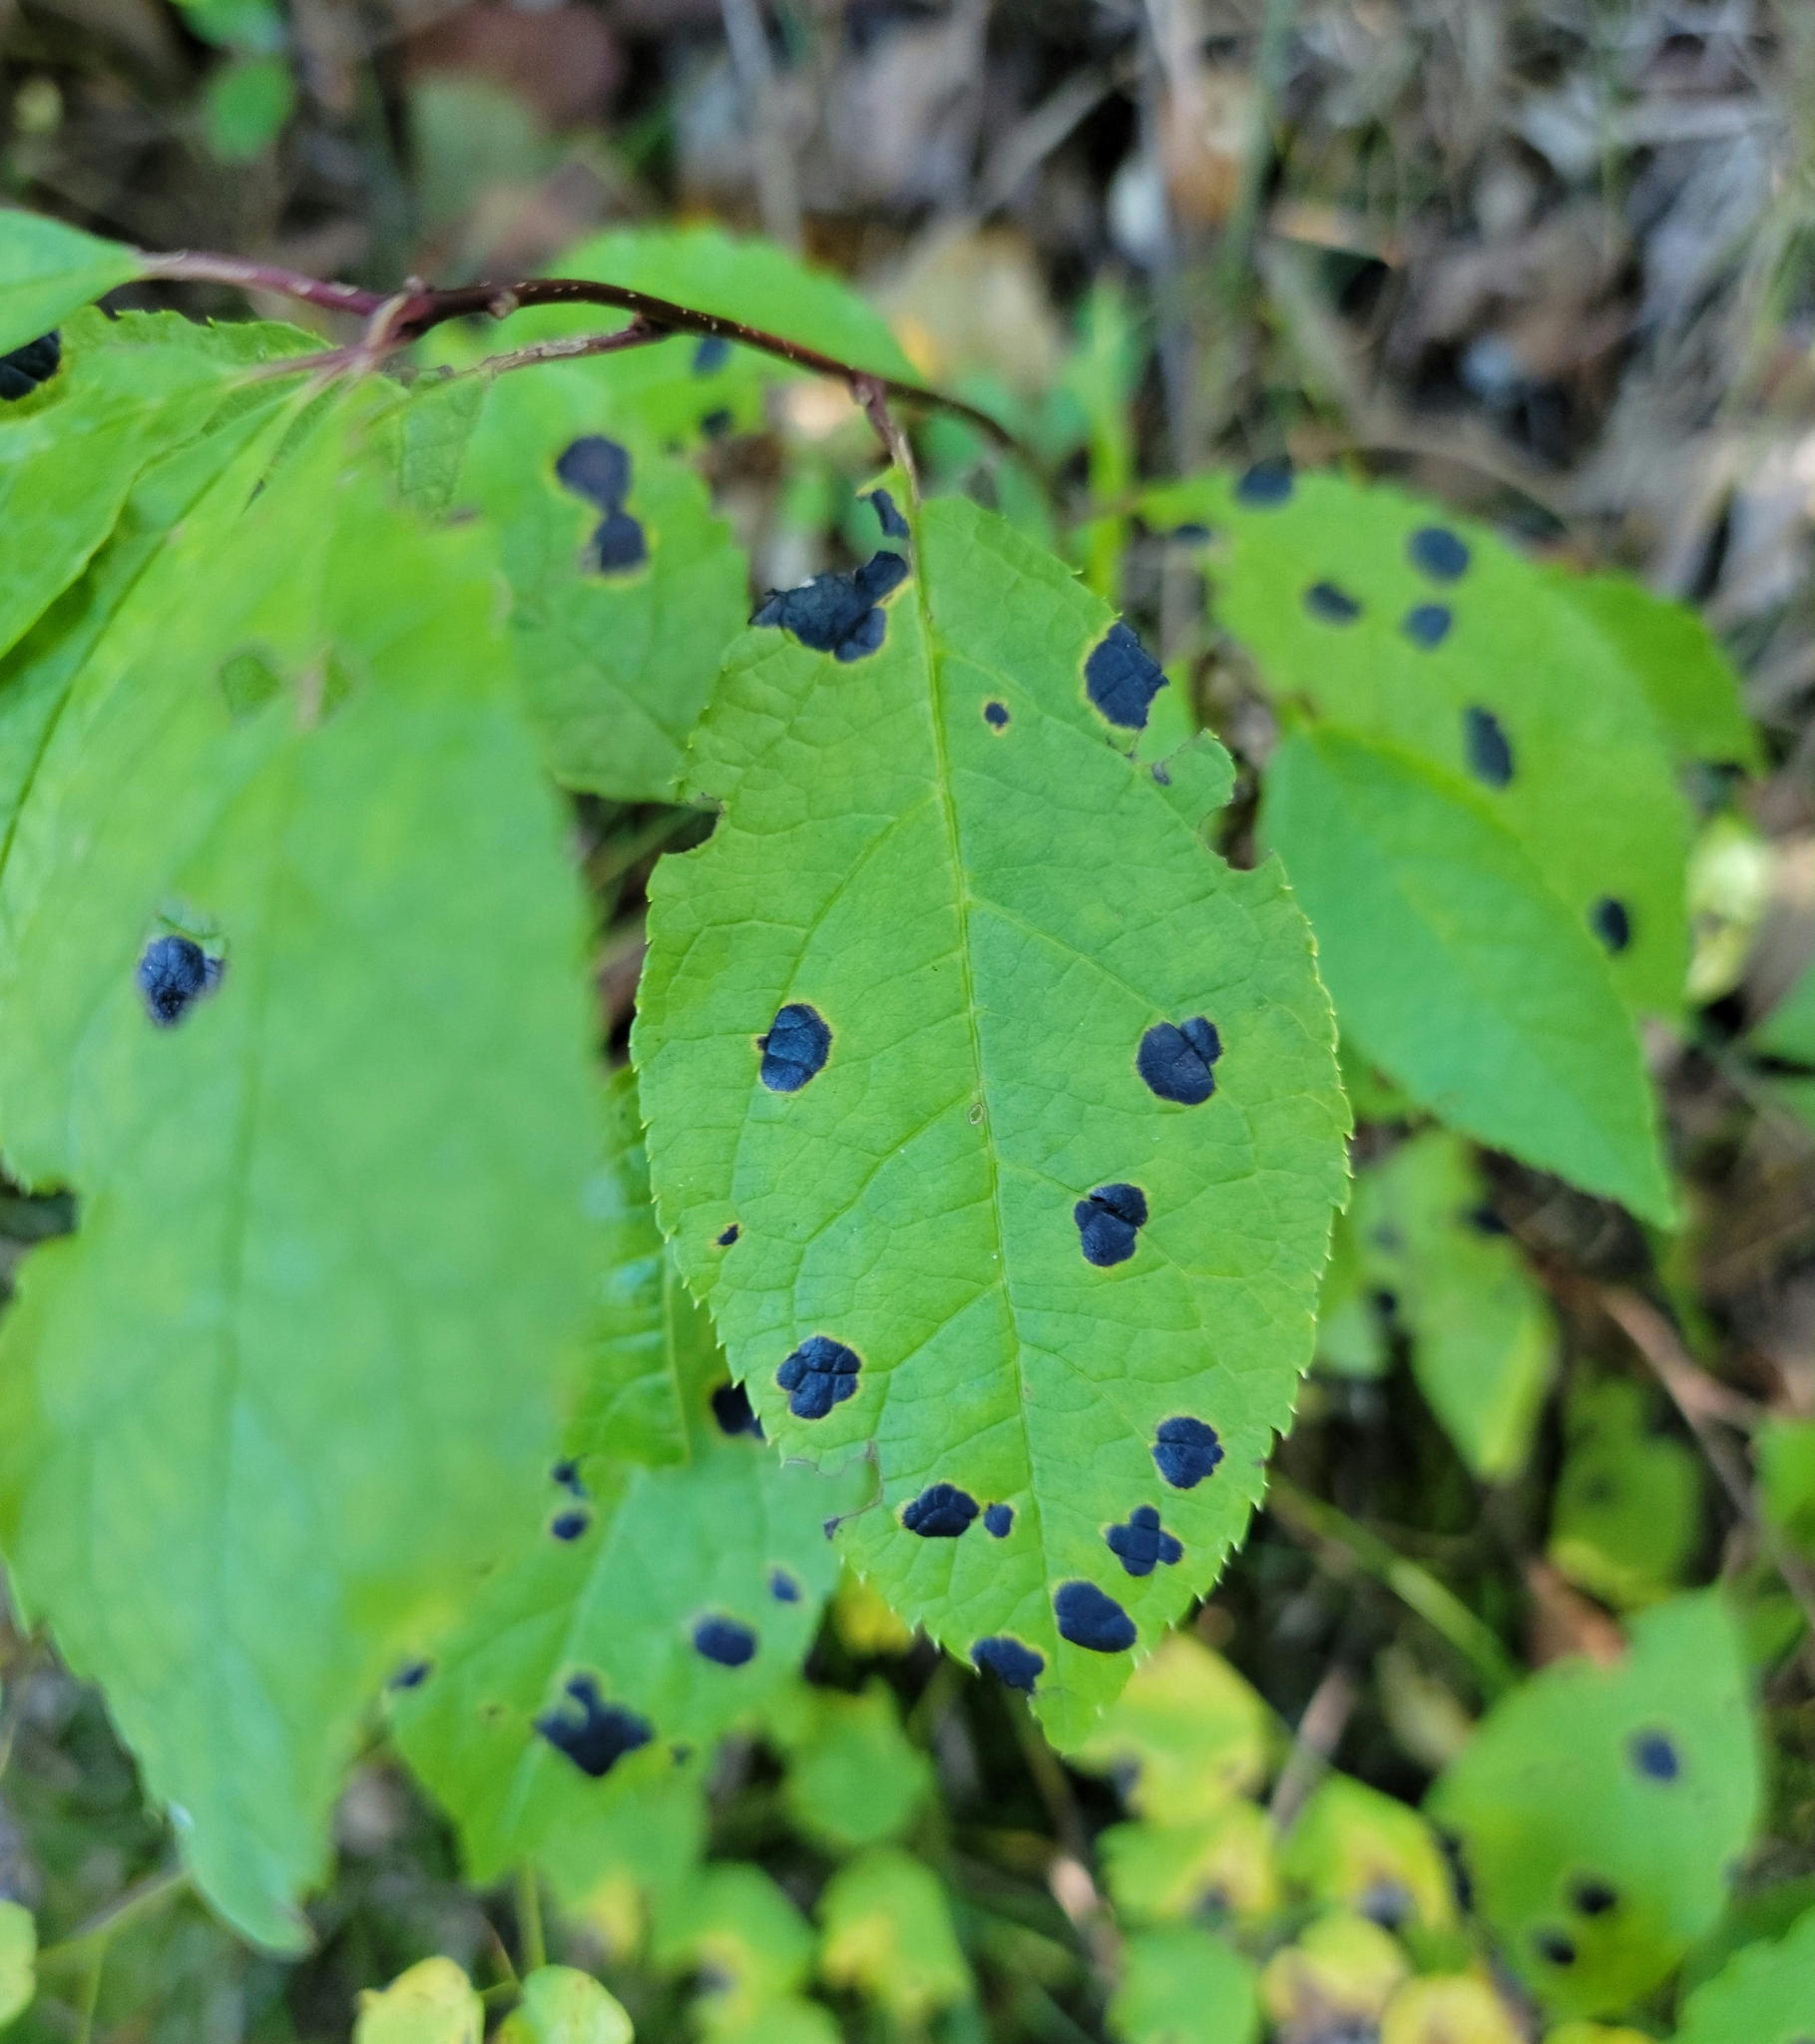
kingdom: Fungi
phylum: Ascomycota
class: Leotiomycetes
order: Rhytismatales
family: Rhytismataceae
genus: Rhytisma
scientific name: Rhytisma
